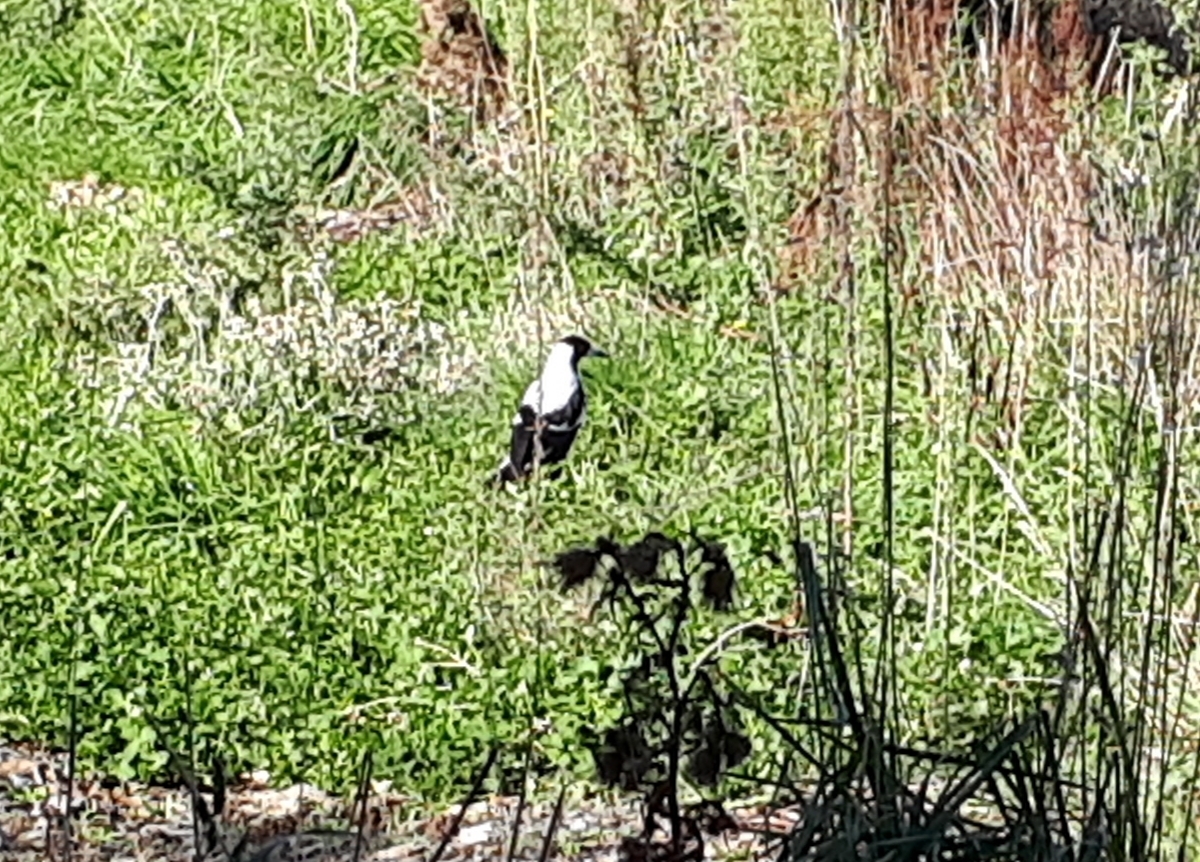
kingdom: Animalia
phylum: Chordata
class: Aves
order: Passeriformes
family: Cracticidae
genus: Gymnorhina
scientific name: Gymnorhina tibicen
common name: Australian magpie
